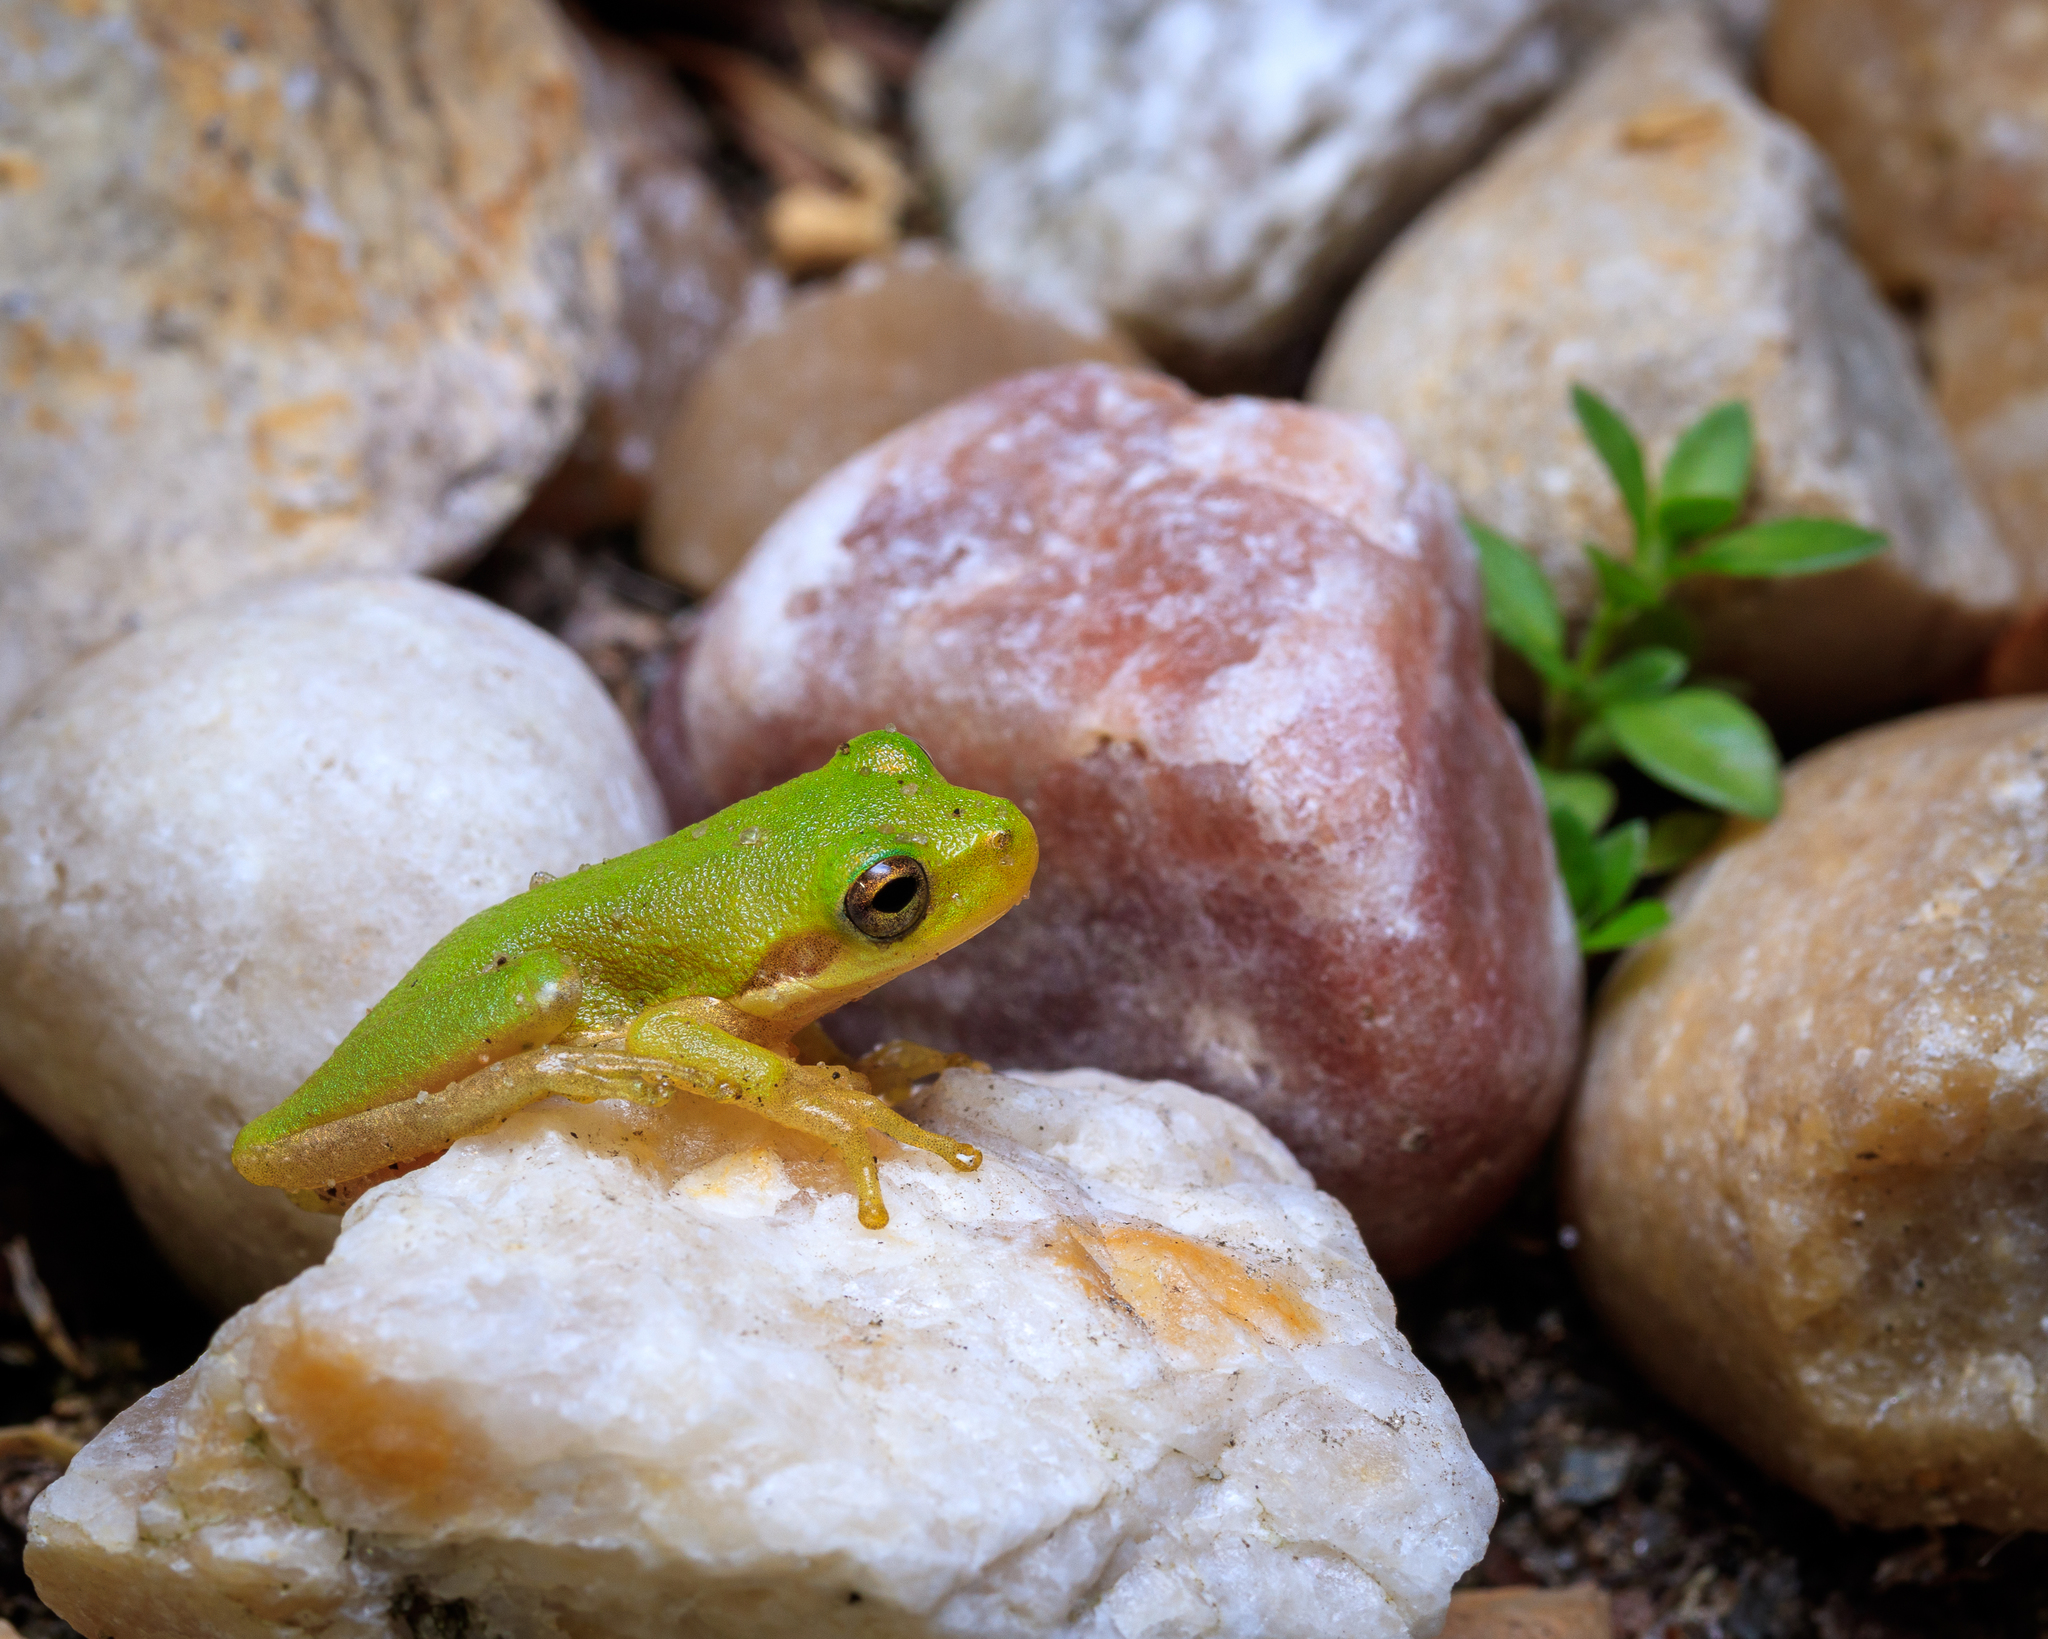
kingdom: Animalia
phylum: Chordata
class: Amphibia
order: Anura
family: Hylidae
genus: Dryophytes
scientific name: Dryophytes squirellus
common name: Squirrel treefrog
